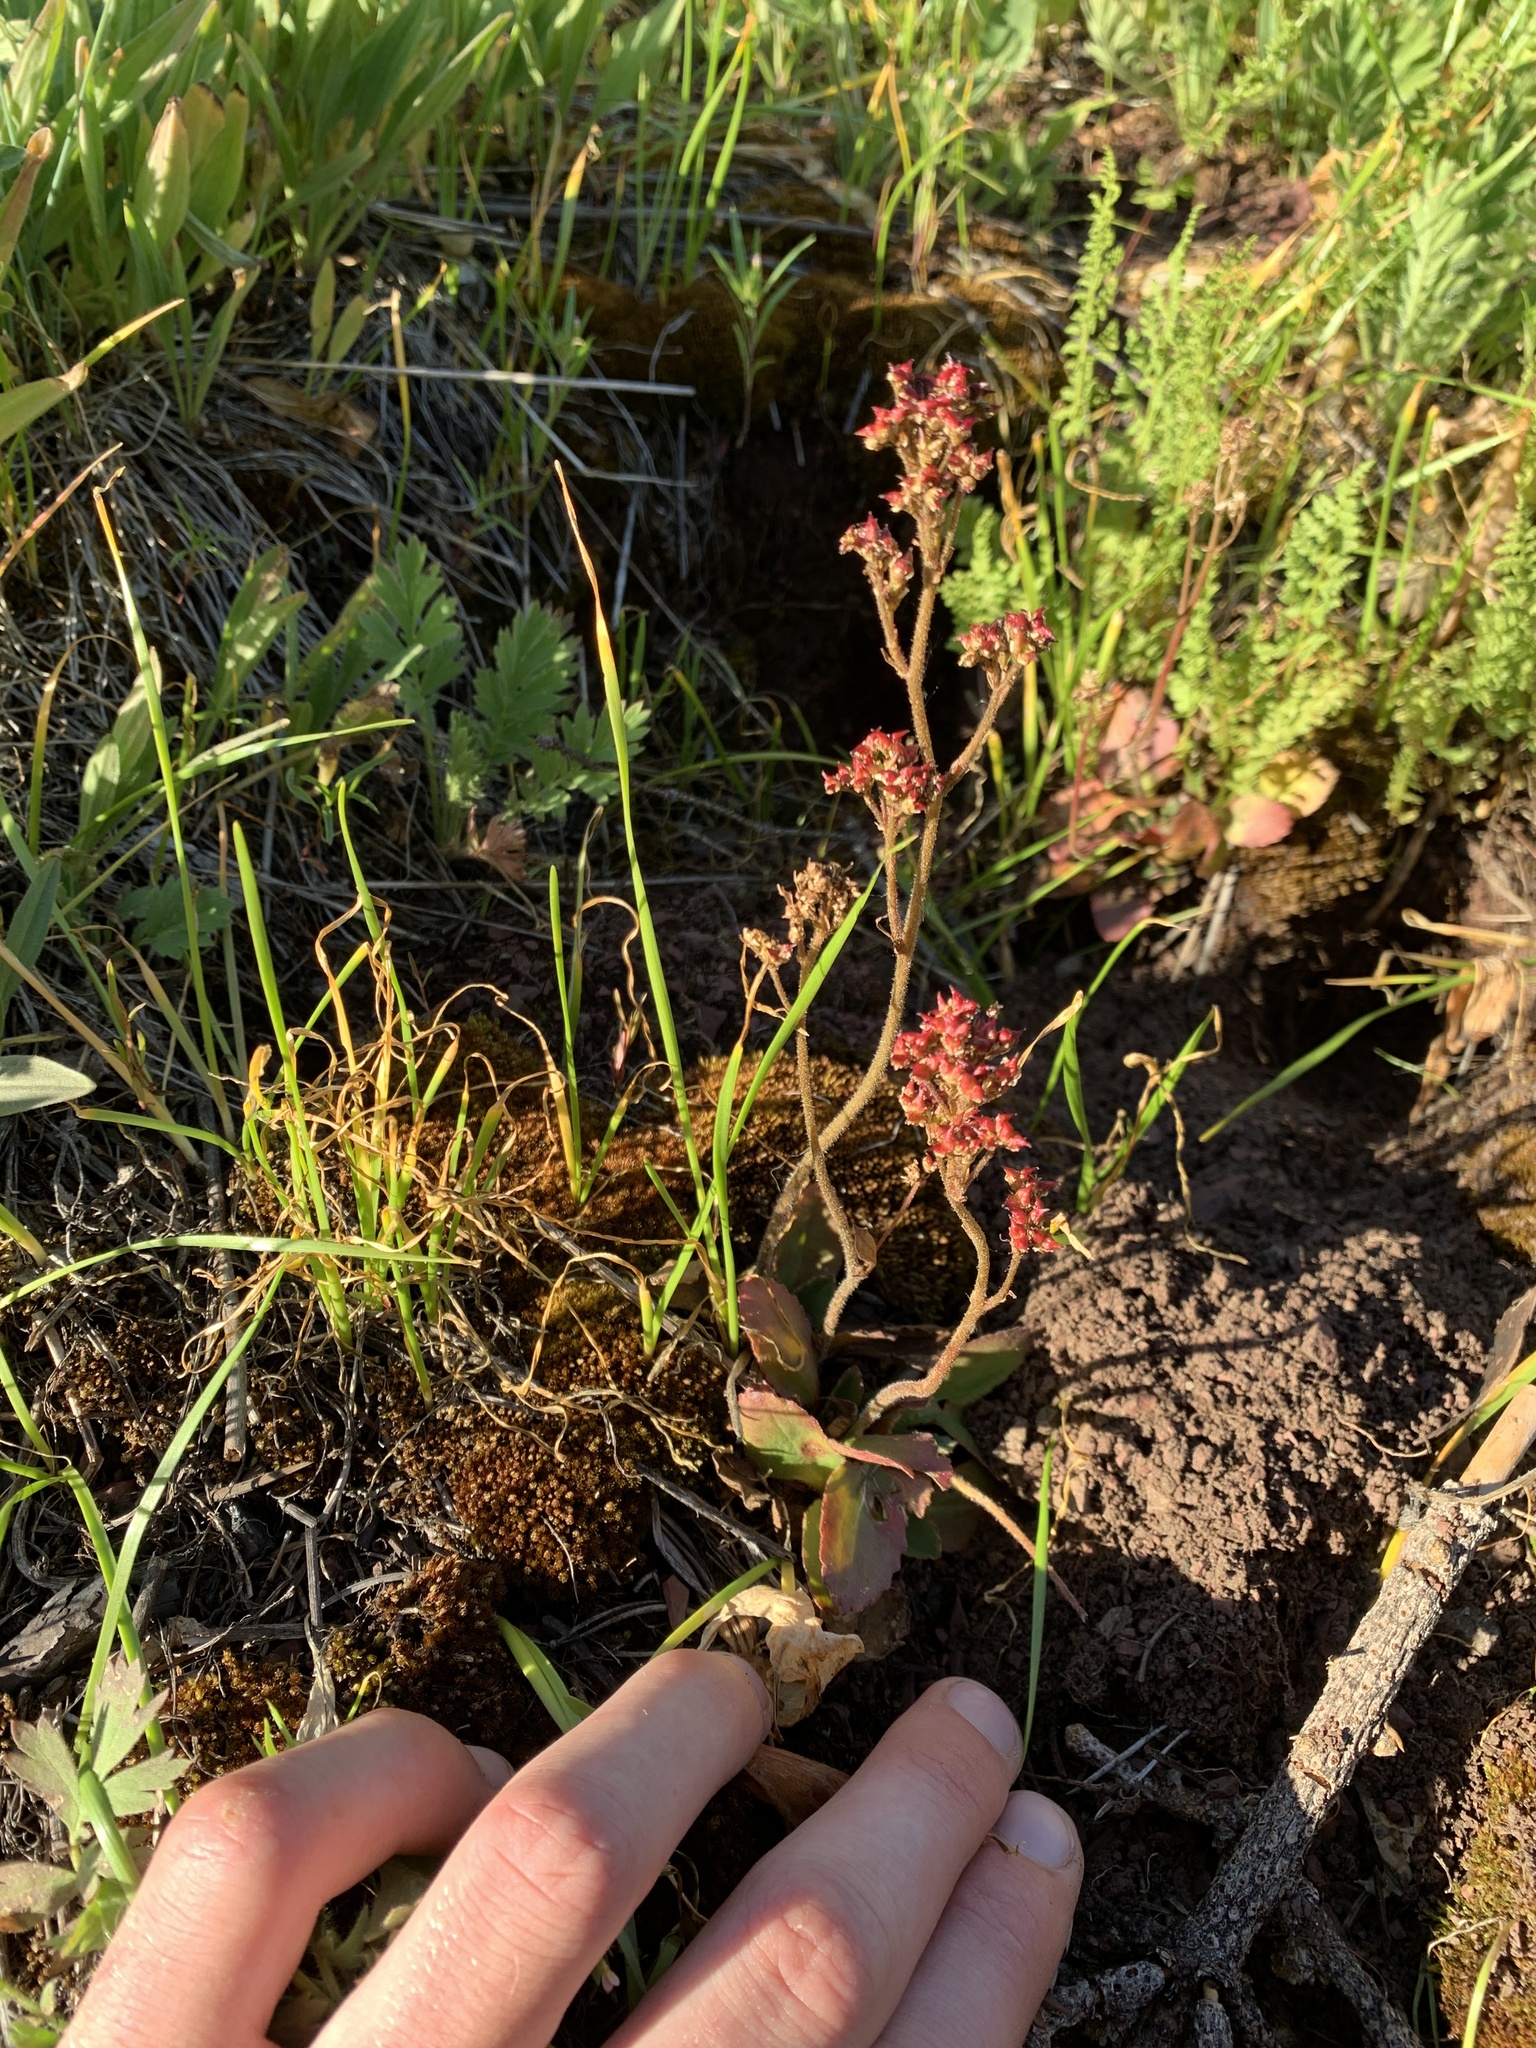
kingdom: Plantae
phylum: Tracheophyta
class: Magnoliopsida
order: Saxifragales
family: Saxifragaceae
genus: Micranthes
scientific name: Micranthes occidentalis
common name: Alberta saxifrage
